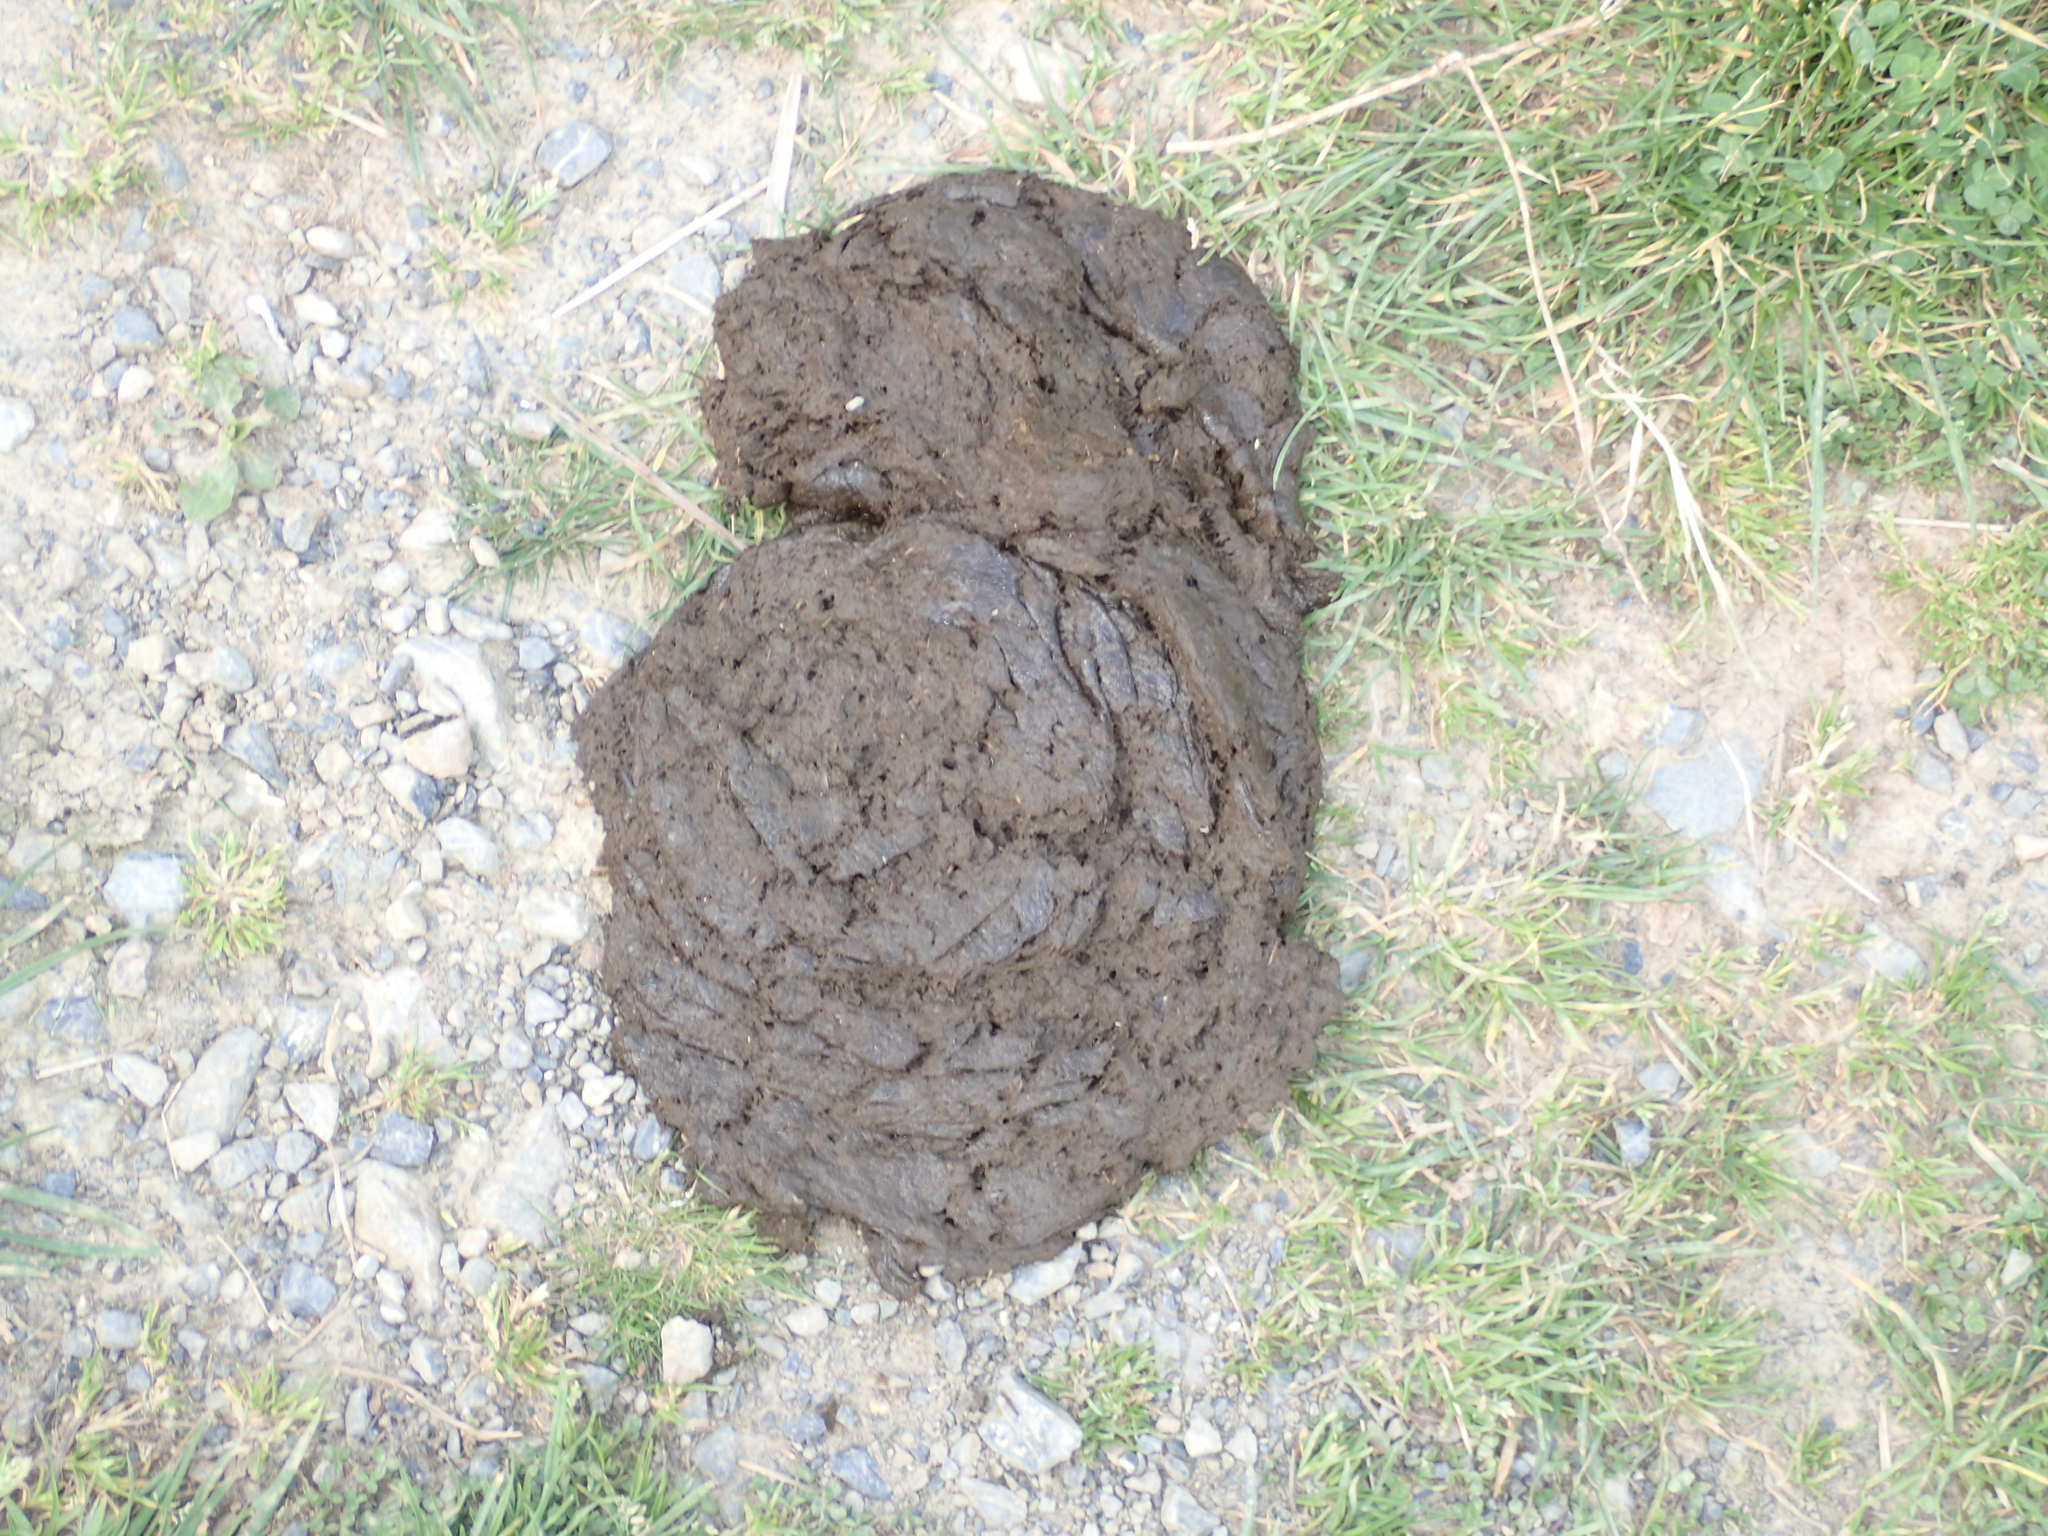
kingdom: Animalia
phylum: Chordata
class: Mammalia
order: Artiodactyla
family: Bovidae
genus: Bos
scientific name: Bos taurus
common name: Domesticated cattle
